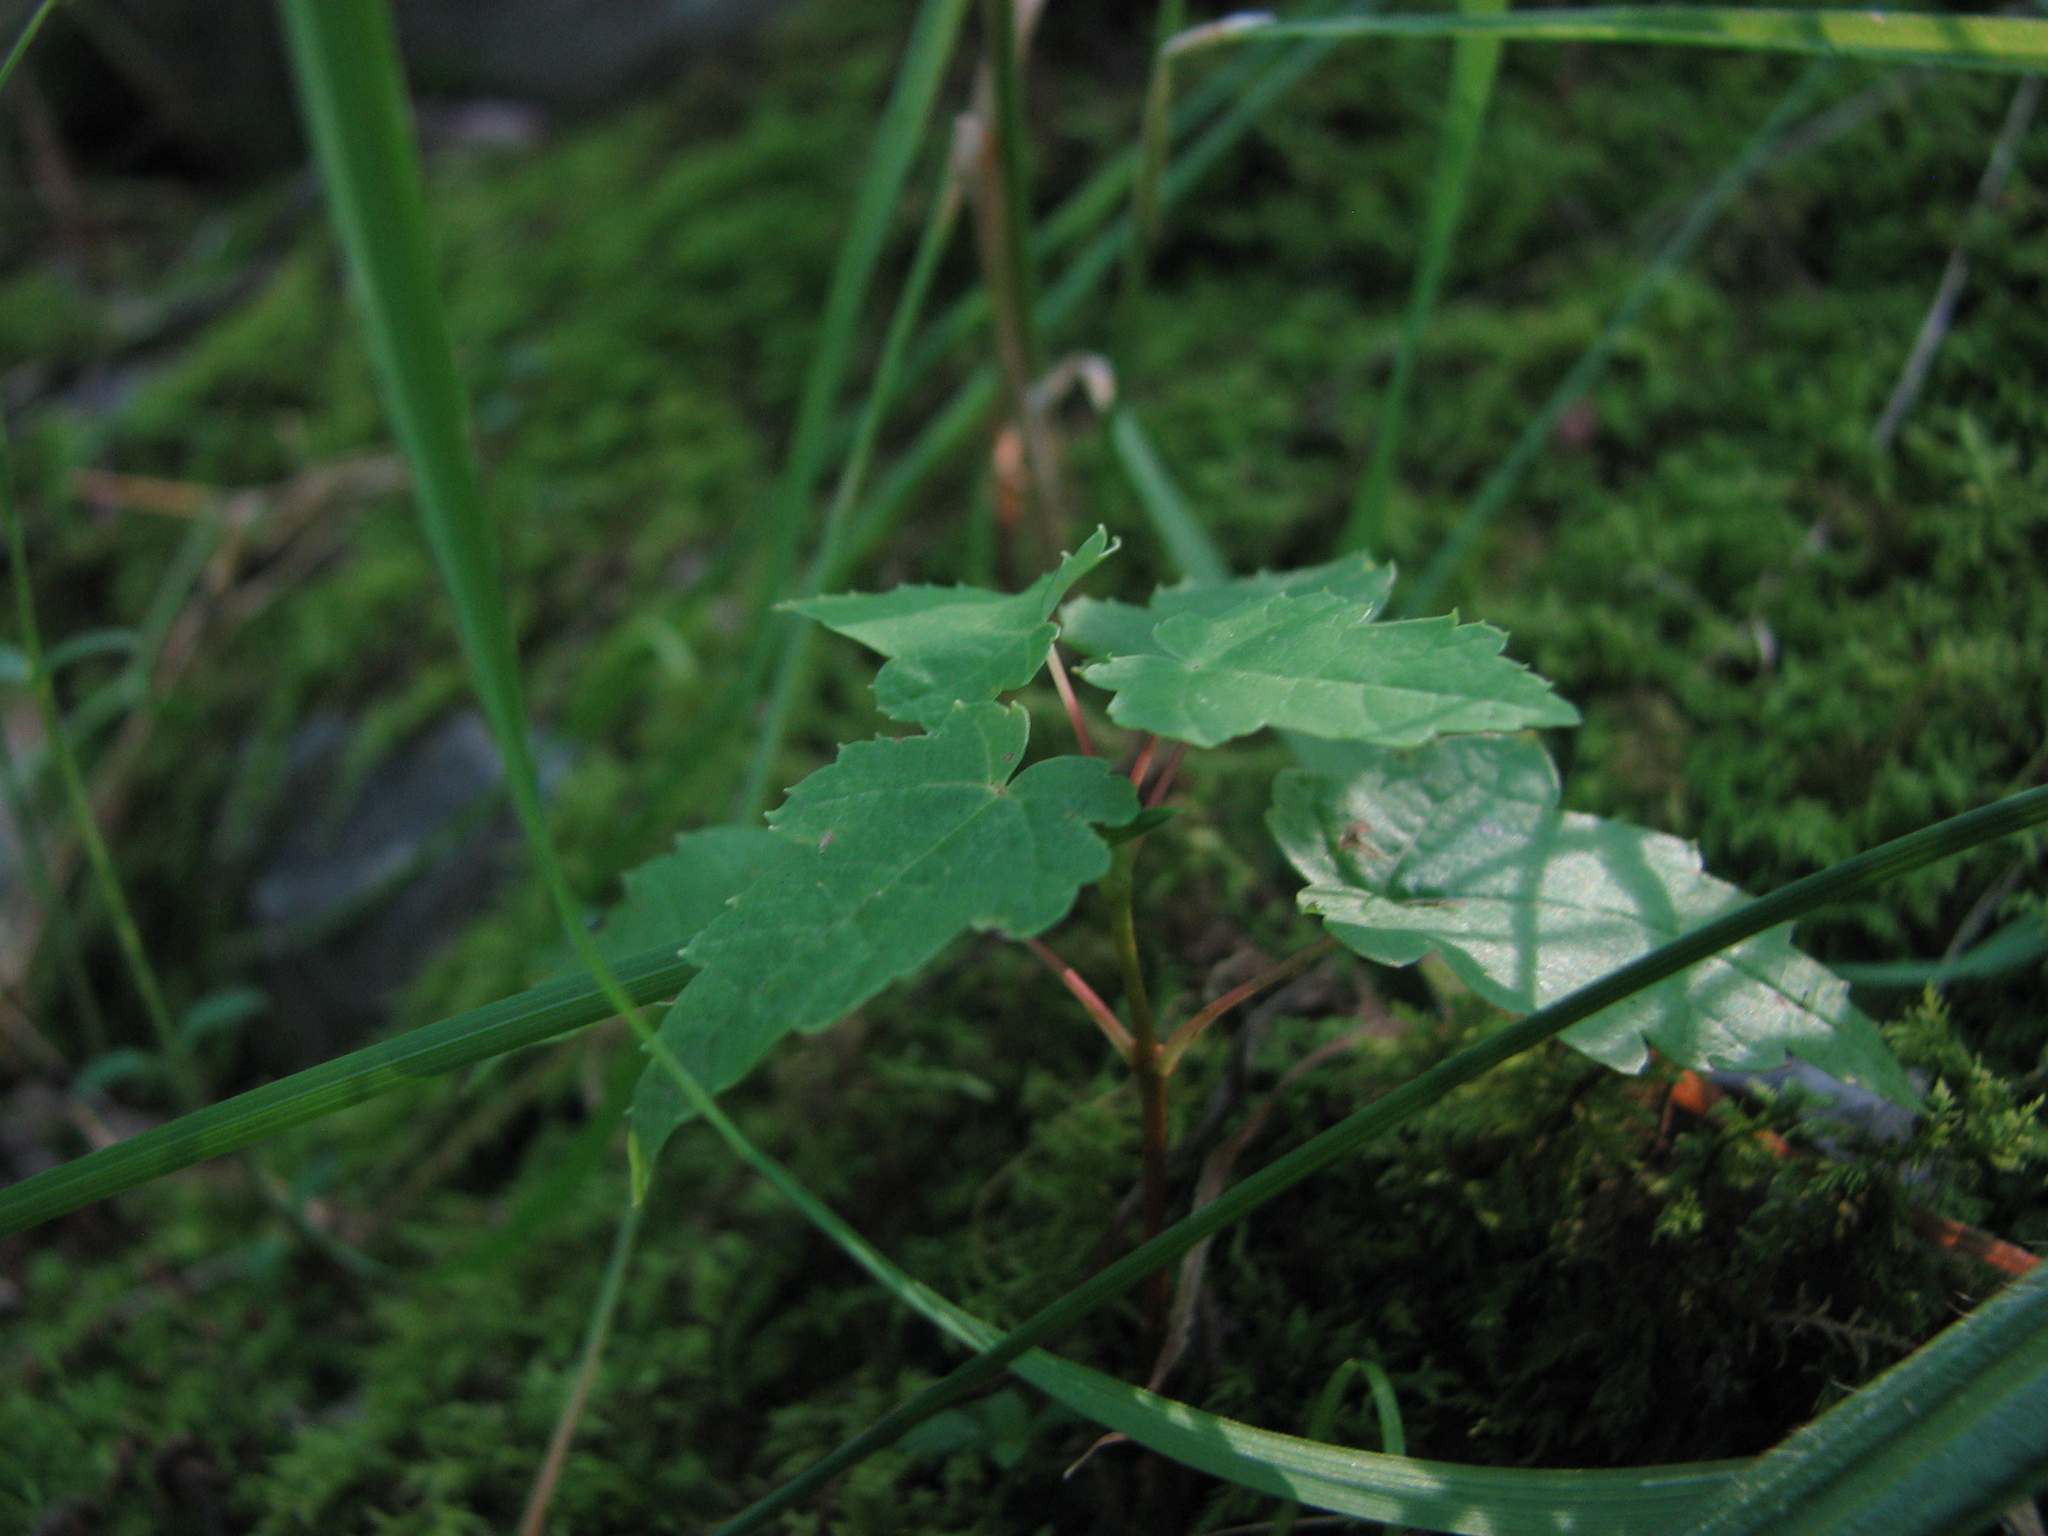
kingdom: Plantae
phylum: Tracheophyta
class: Magnoliopsida
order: Sapindales
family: Sapindaceae
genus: Acer
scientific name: Acer rubrum
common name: Red maple
